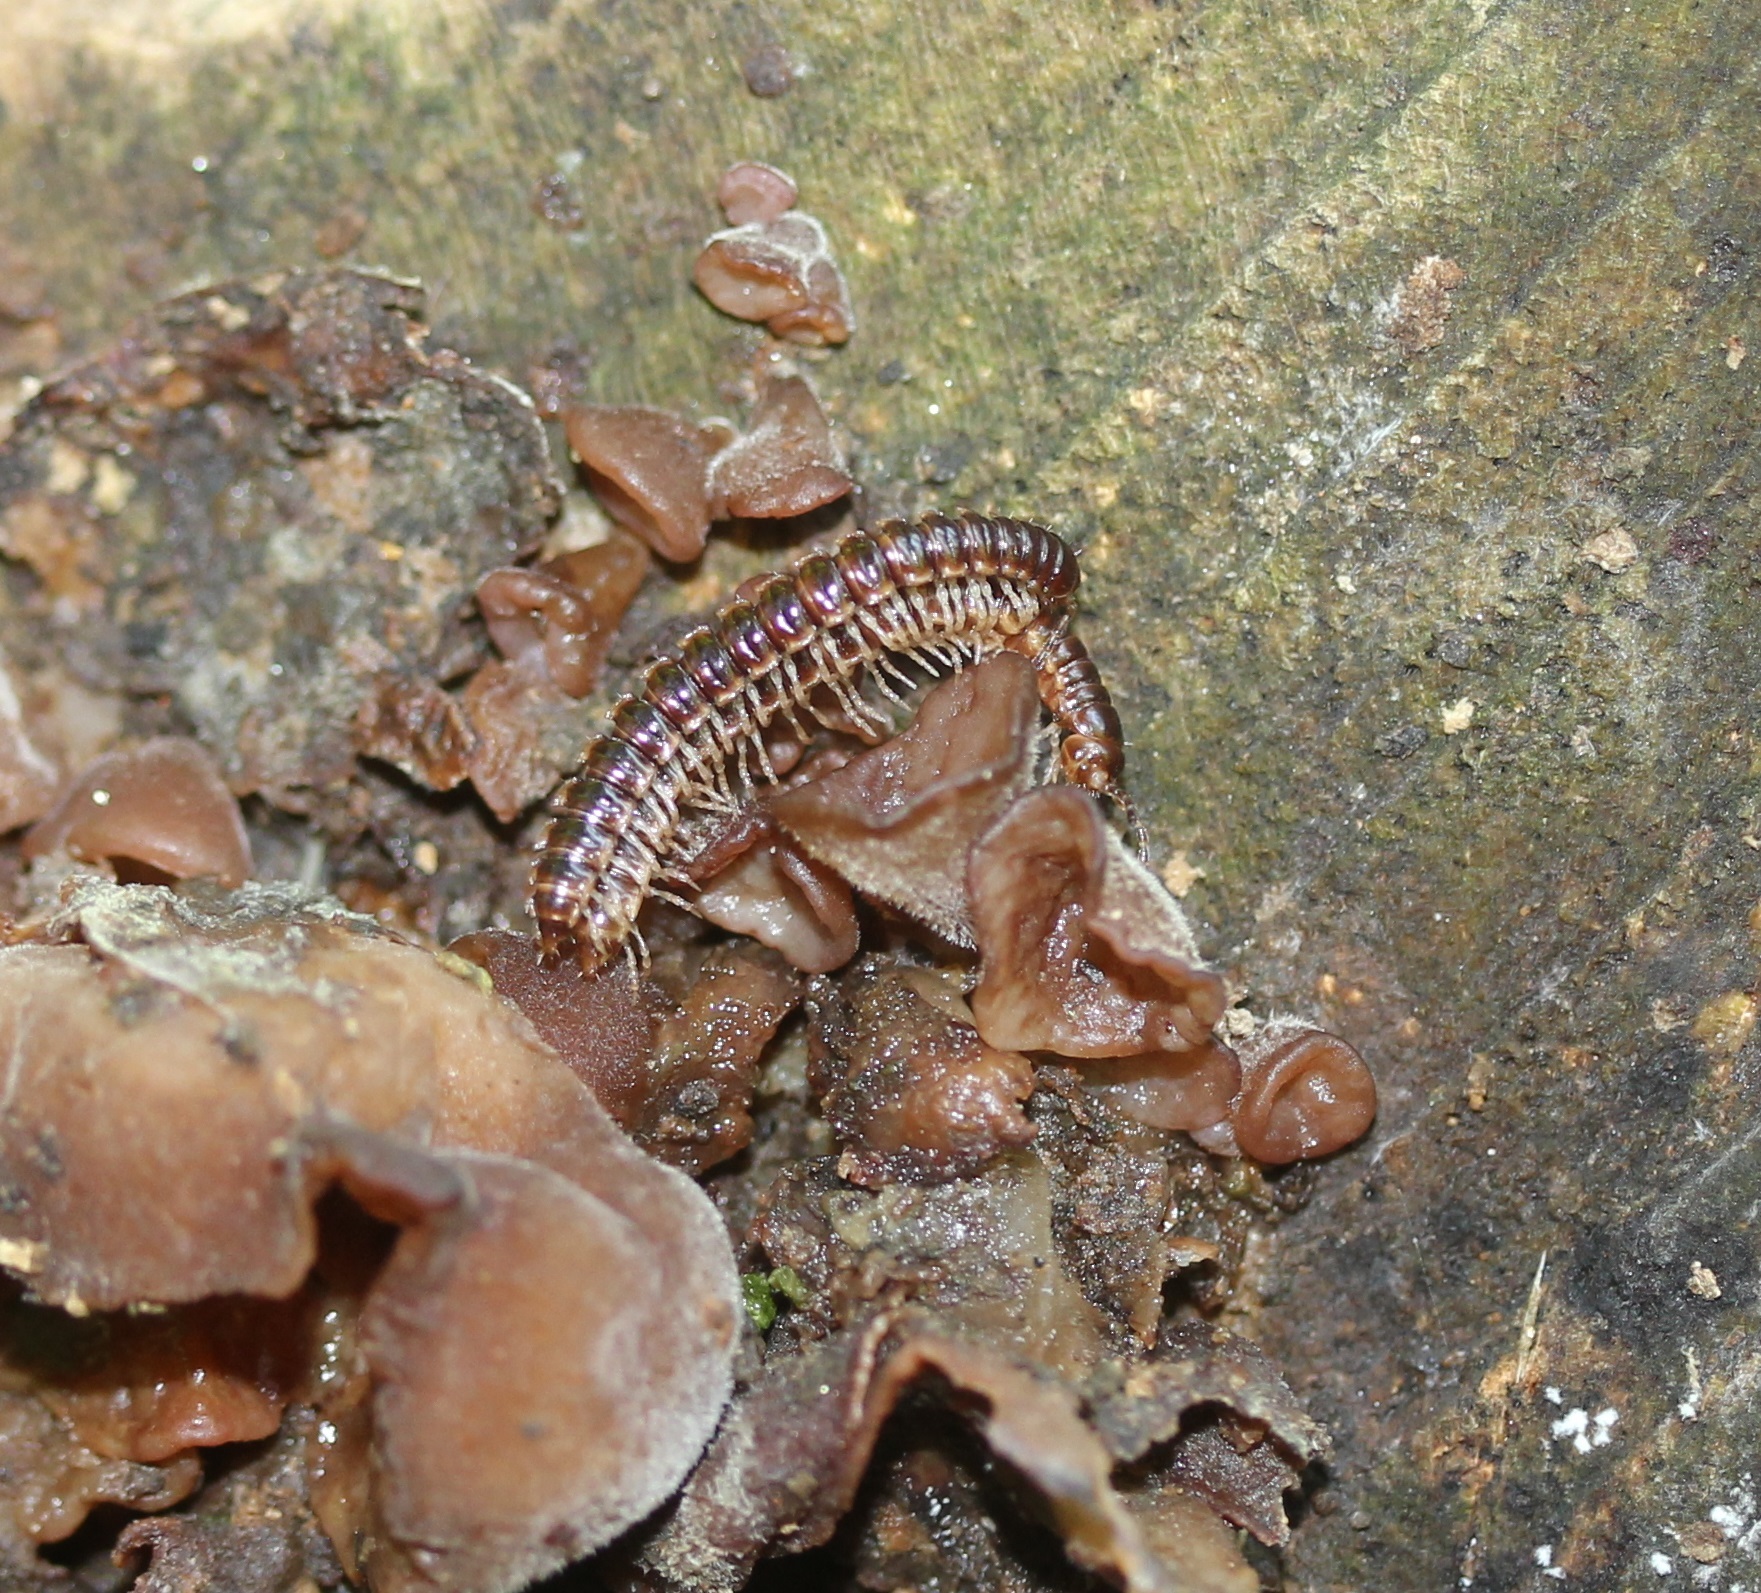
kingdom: Animalia
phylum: Arthropoda
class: Diplopoda
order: Polydesmida
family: Paradoxosomatidae
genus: Oxidus
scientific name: Oxidus gracilis
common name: Greenhouse millipede
